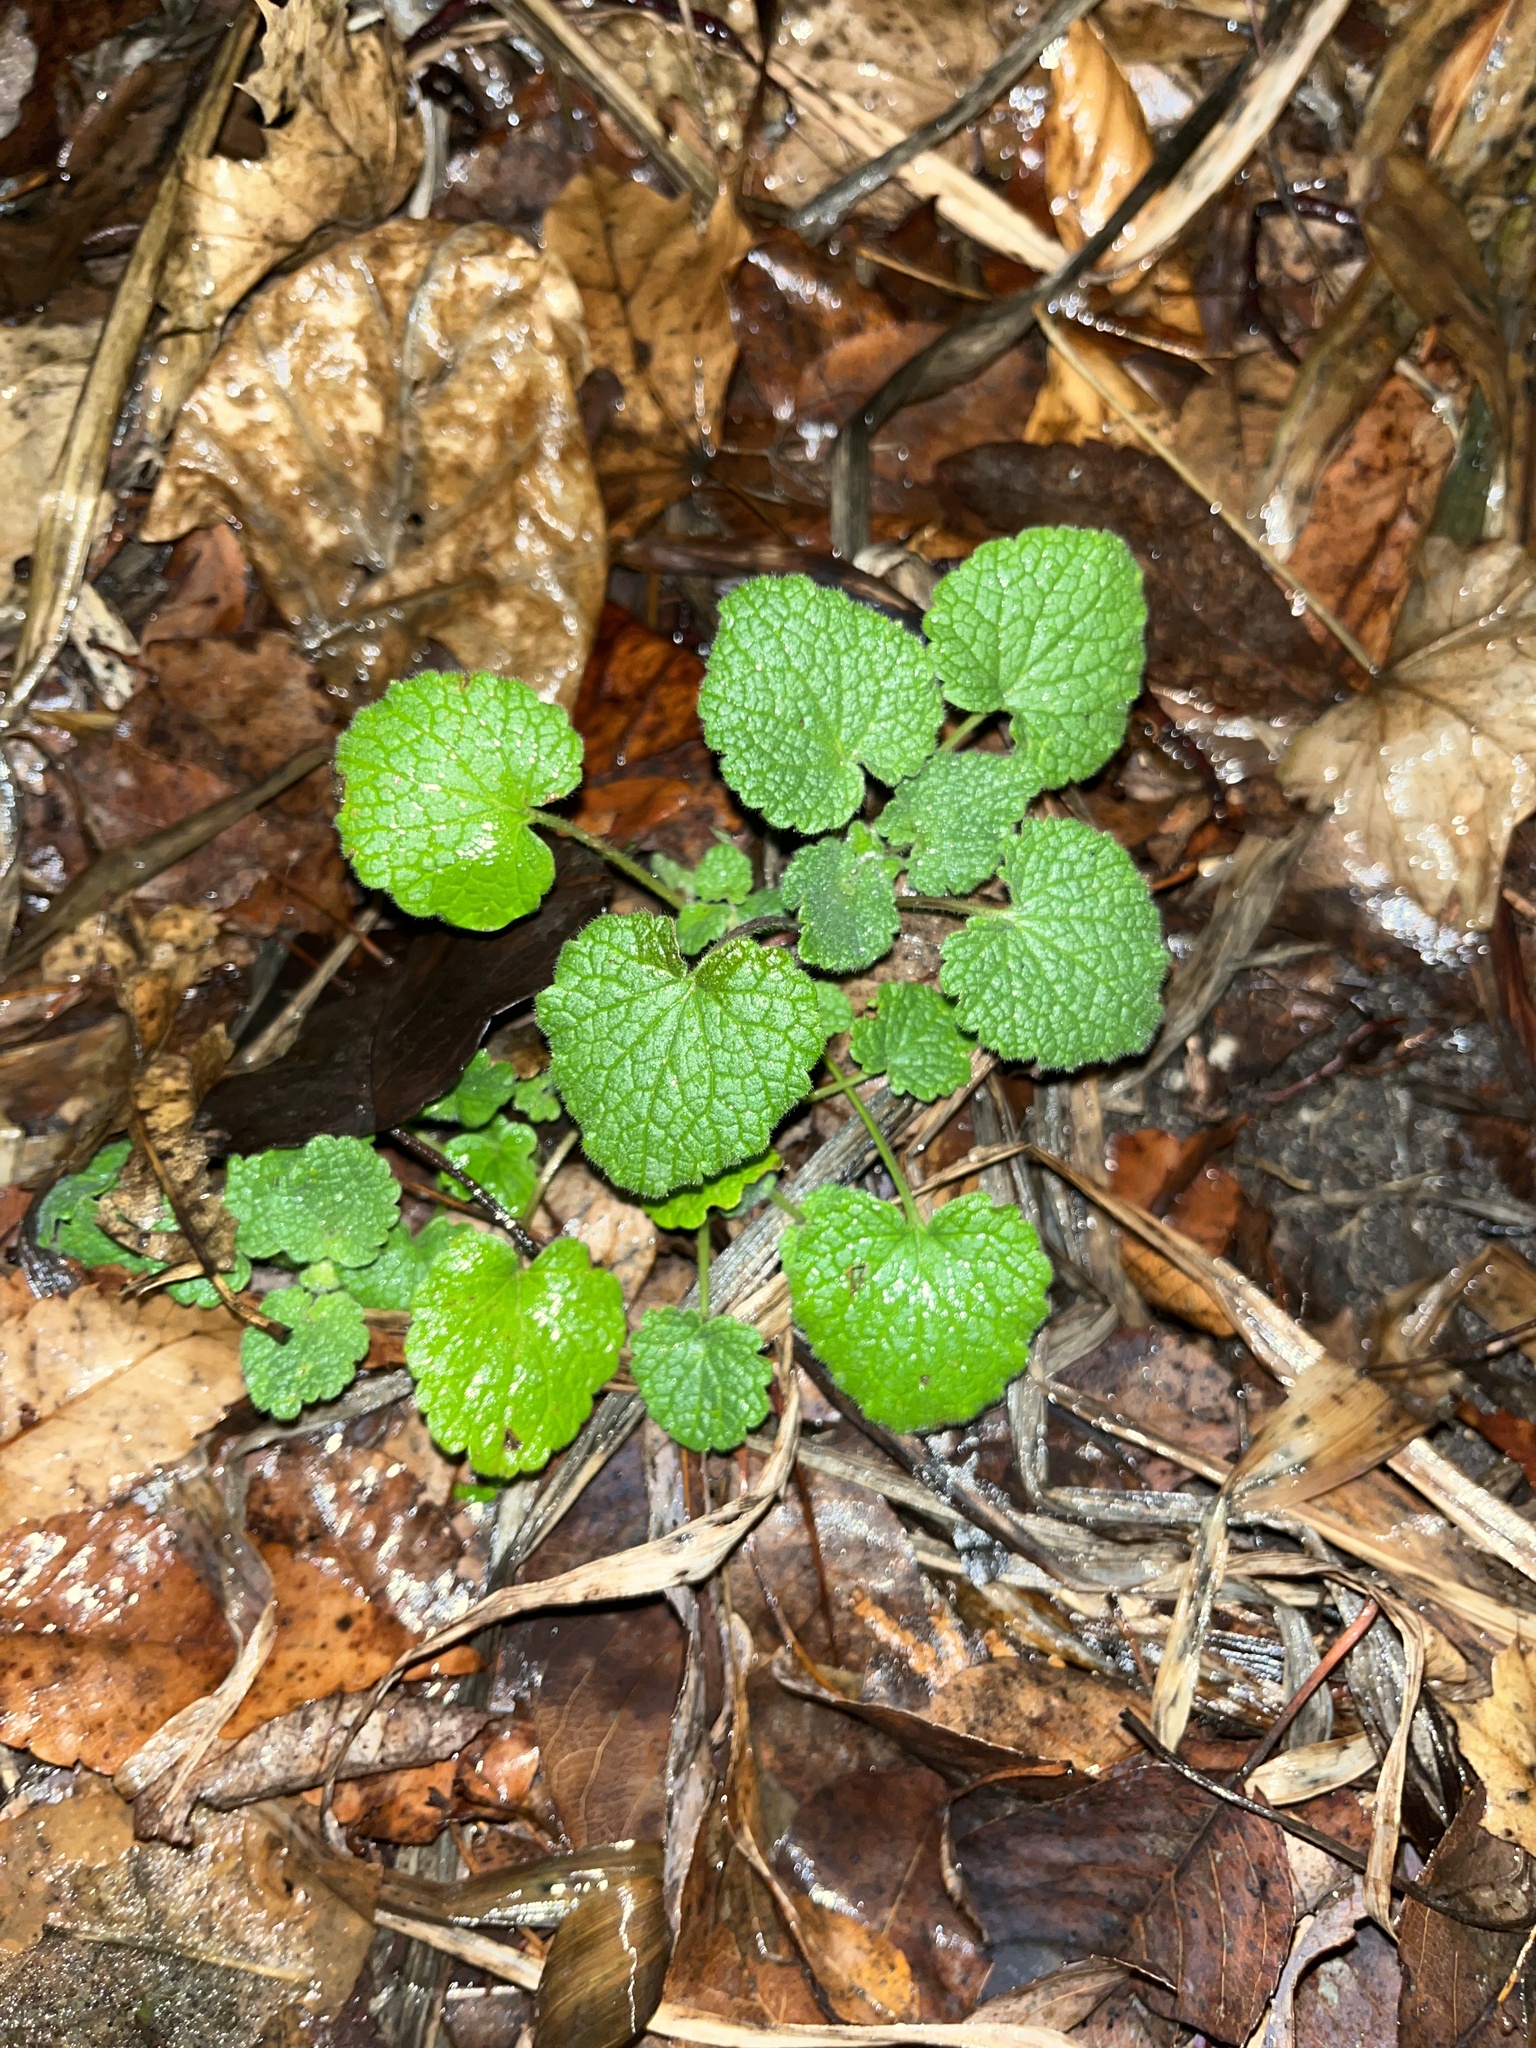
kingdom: Plantae
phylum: Tracheophyta
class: Magnoliopsida
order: Brassicales
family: Brassicaceae
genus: Alliaria
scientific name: Alliaria petiolata
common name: Garlic mustard
